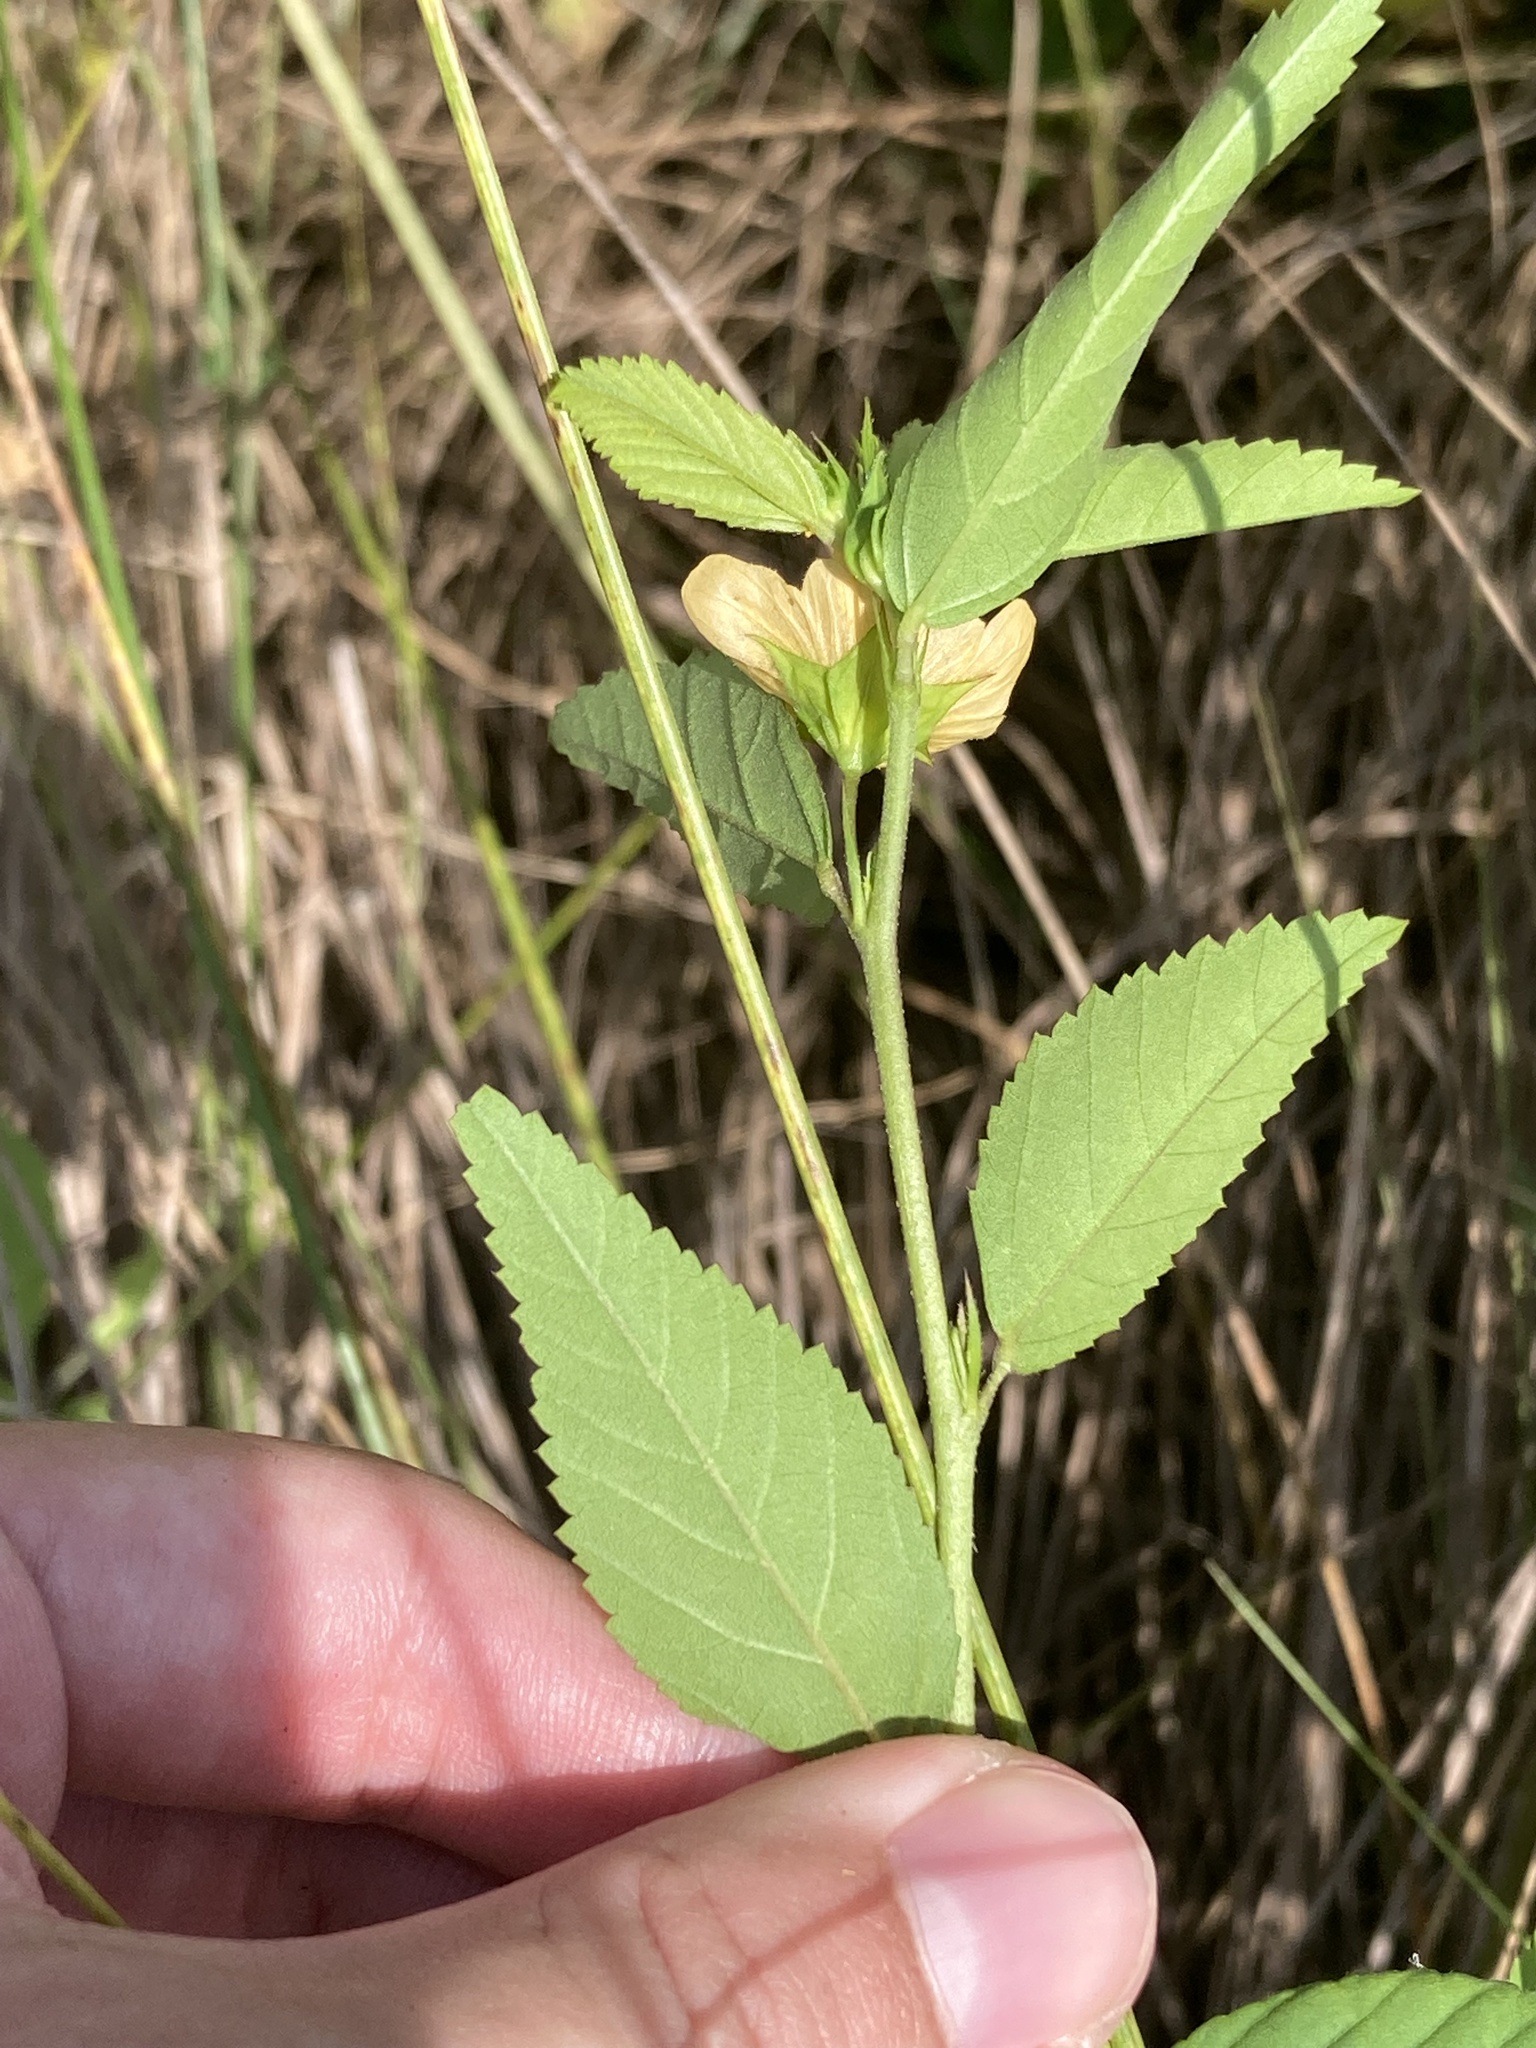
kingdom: Plantae
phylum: Tracheophyta
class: Magnoliopsida
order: Malvales
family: Malvaceae
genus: Sida
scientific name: Sida ulmifolia
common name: Broom weed
